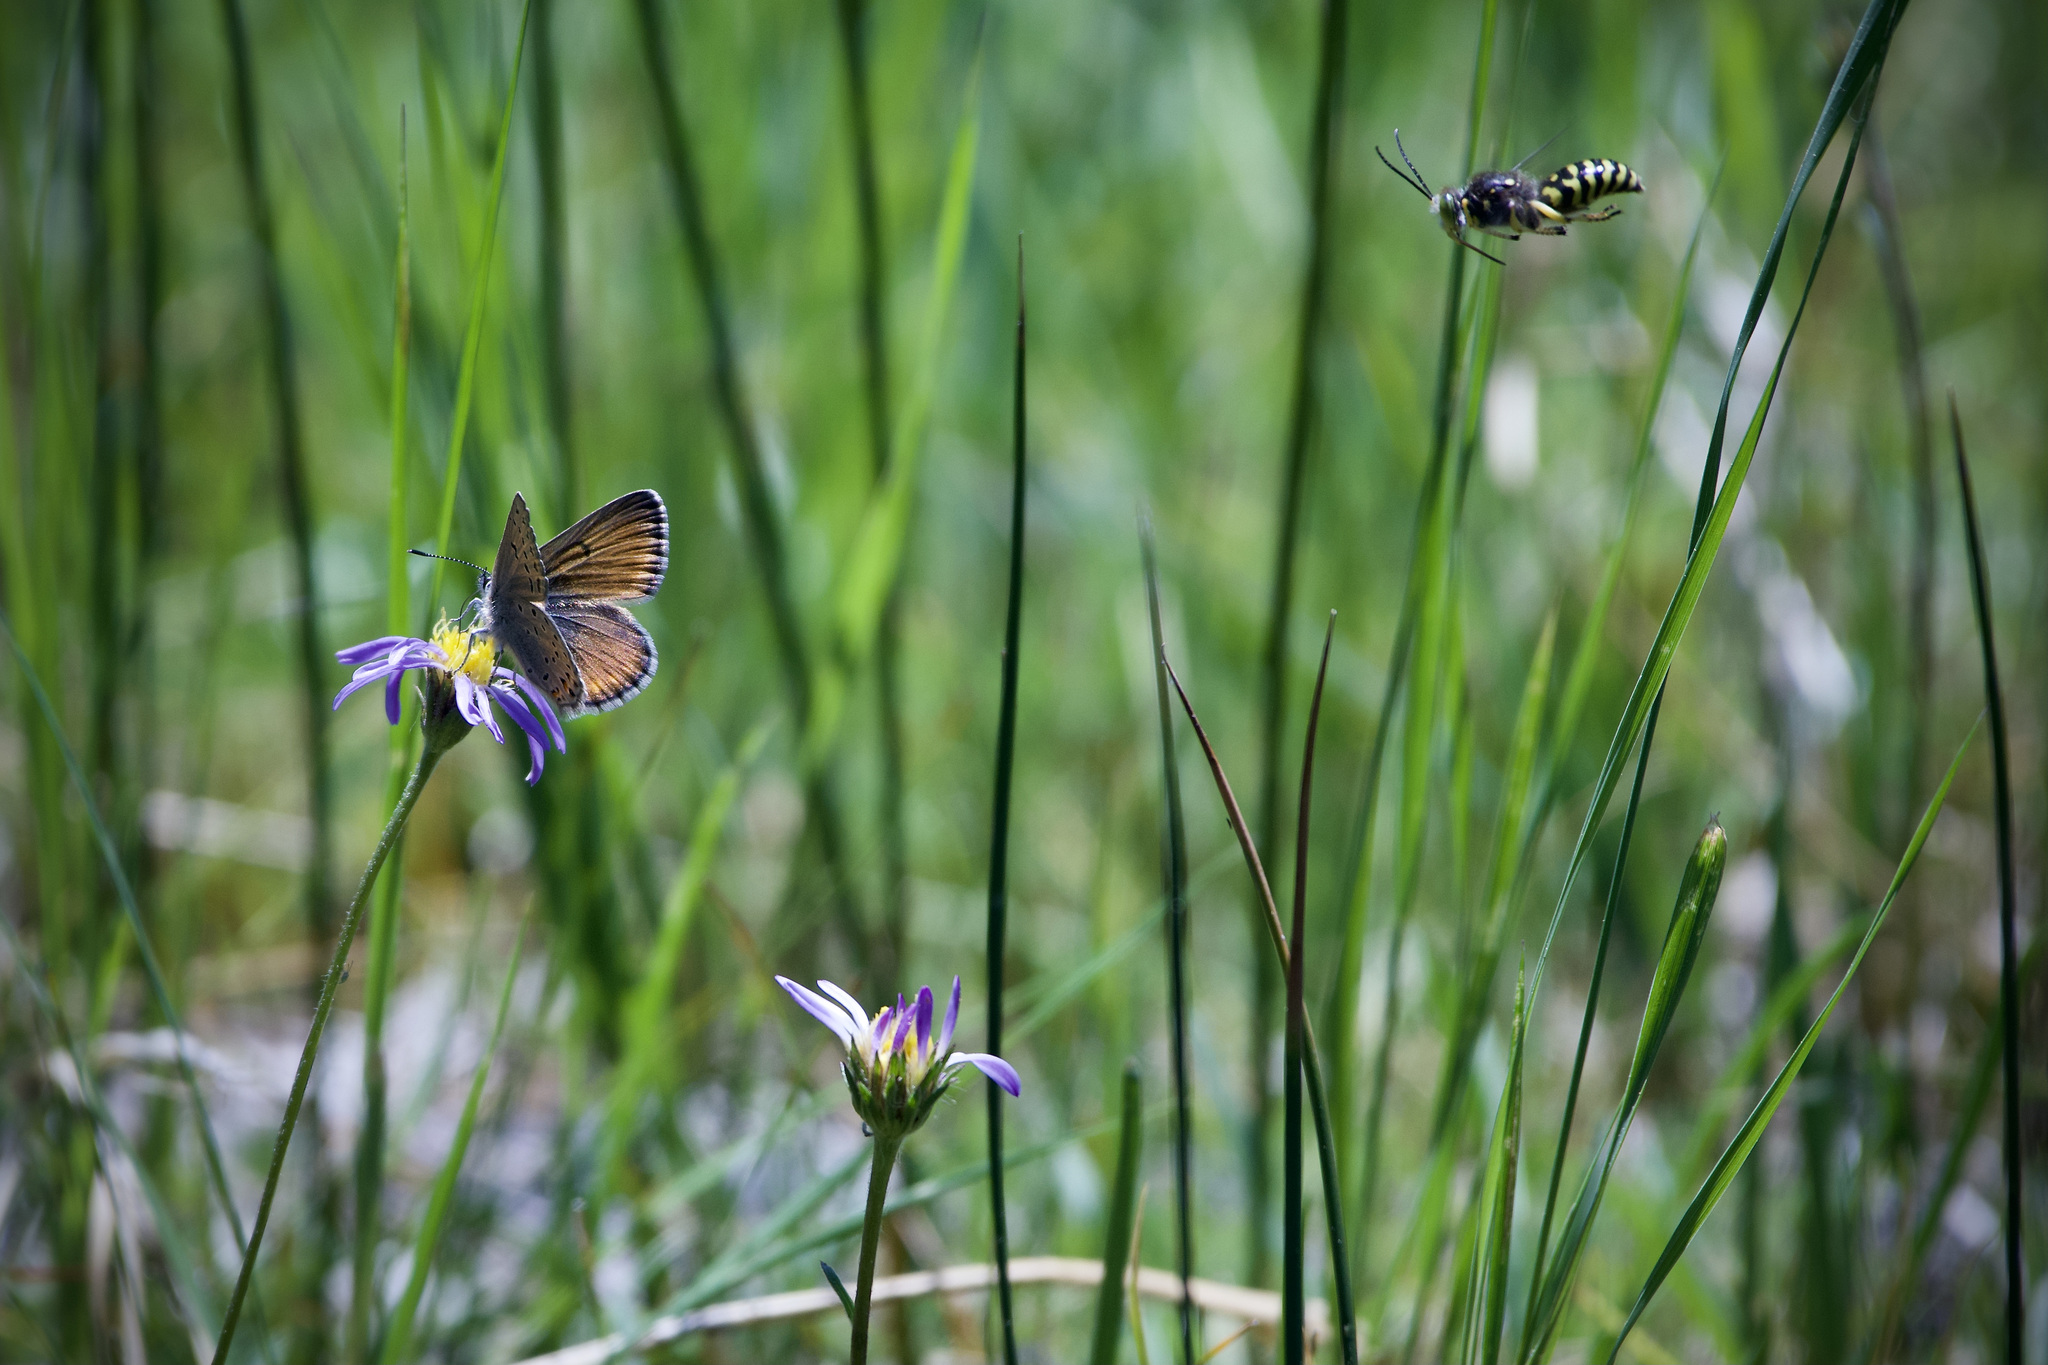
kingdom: Animalia
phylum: Arthropoda
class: Insecta
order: Lepidoptera
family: Lycaenidae
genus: Icaricia
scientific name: Icaricia saepiolus
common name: Greenish blue
